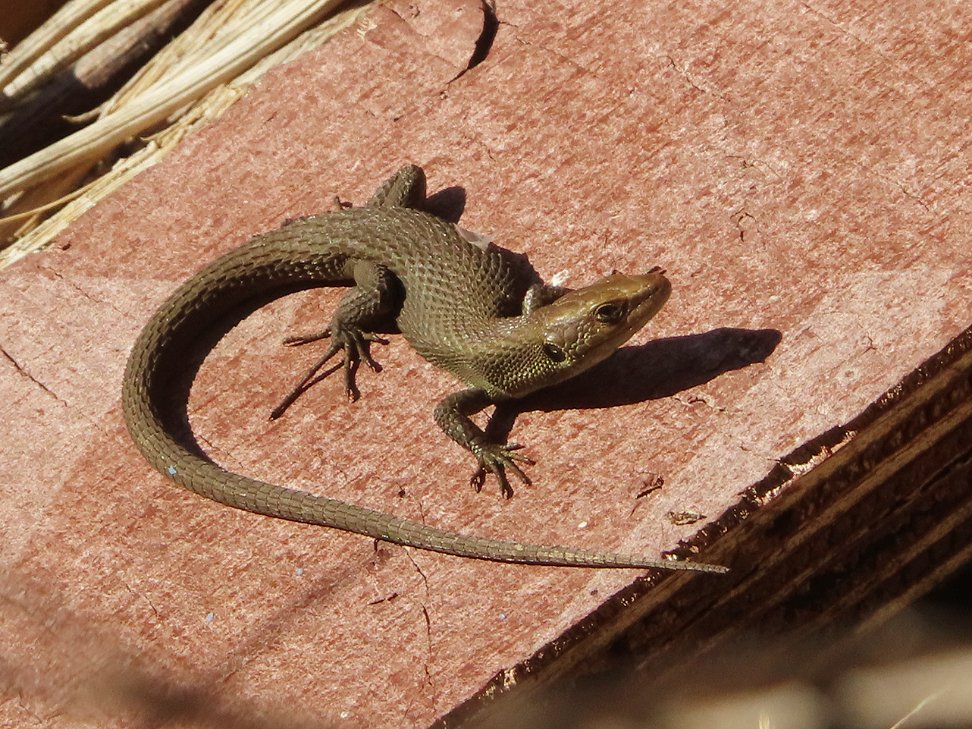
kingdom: Animalia
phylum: Chordata
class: Squamata
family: Lacertidae
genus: Algyroides
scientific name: Algyroides moreoticus
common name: Greek algyroides
